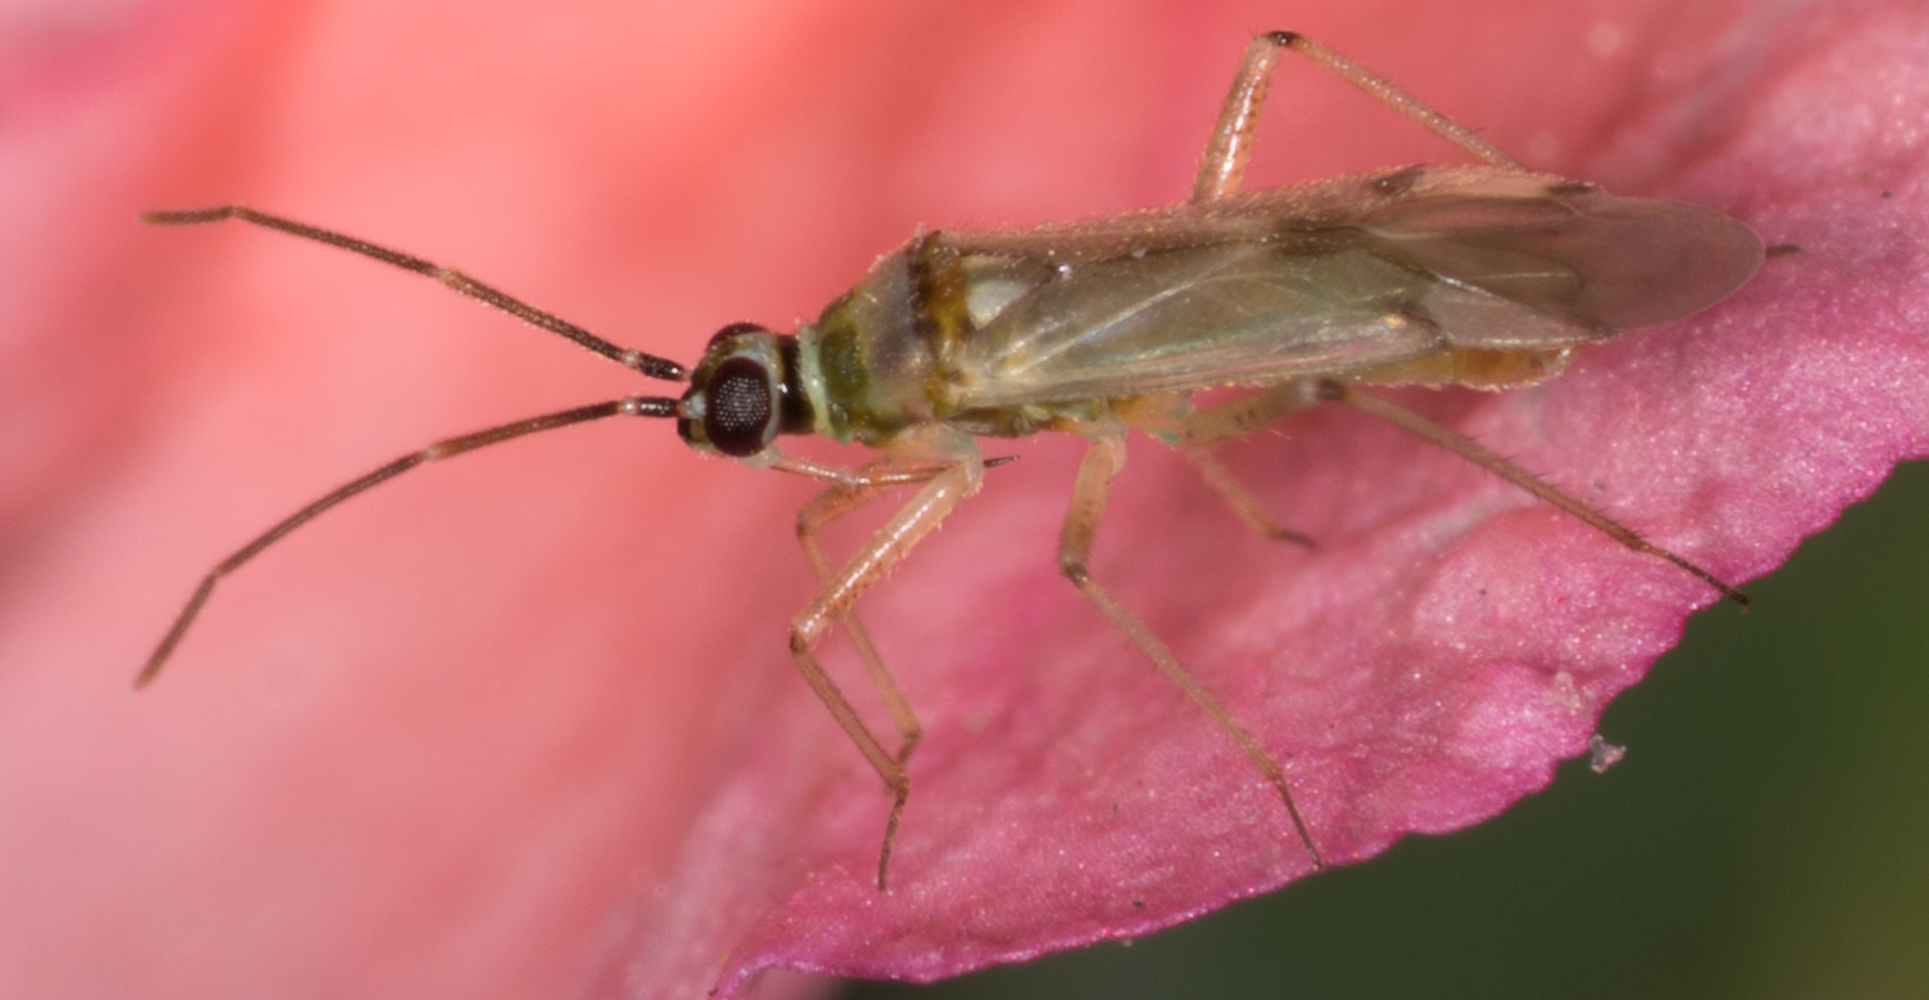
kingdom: Animalia
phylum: Arthropoda
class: Insecta
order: Hemiptera
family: Miridae
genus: Engytatus
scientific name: Engytatus modestus
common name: Tomato bug
